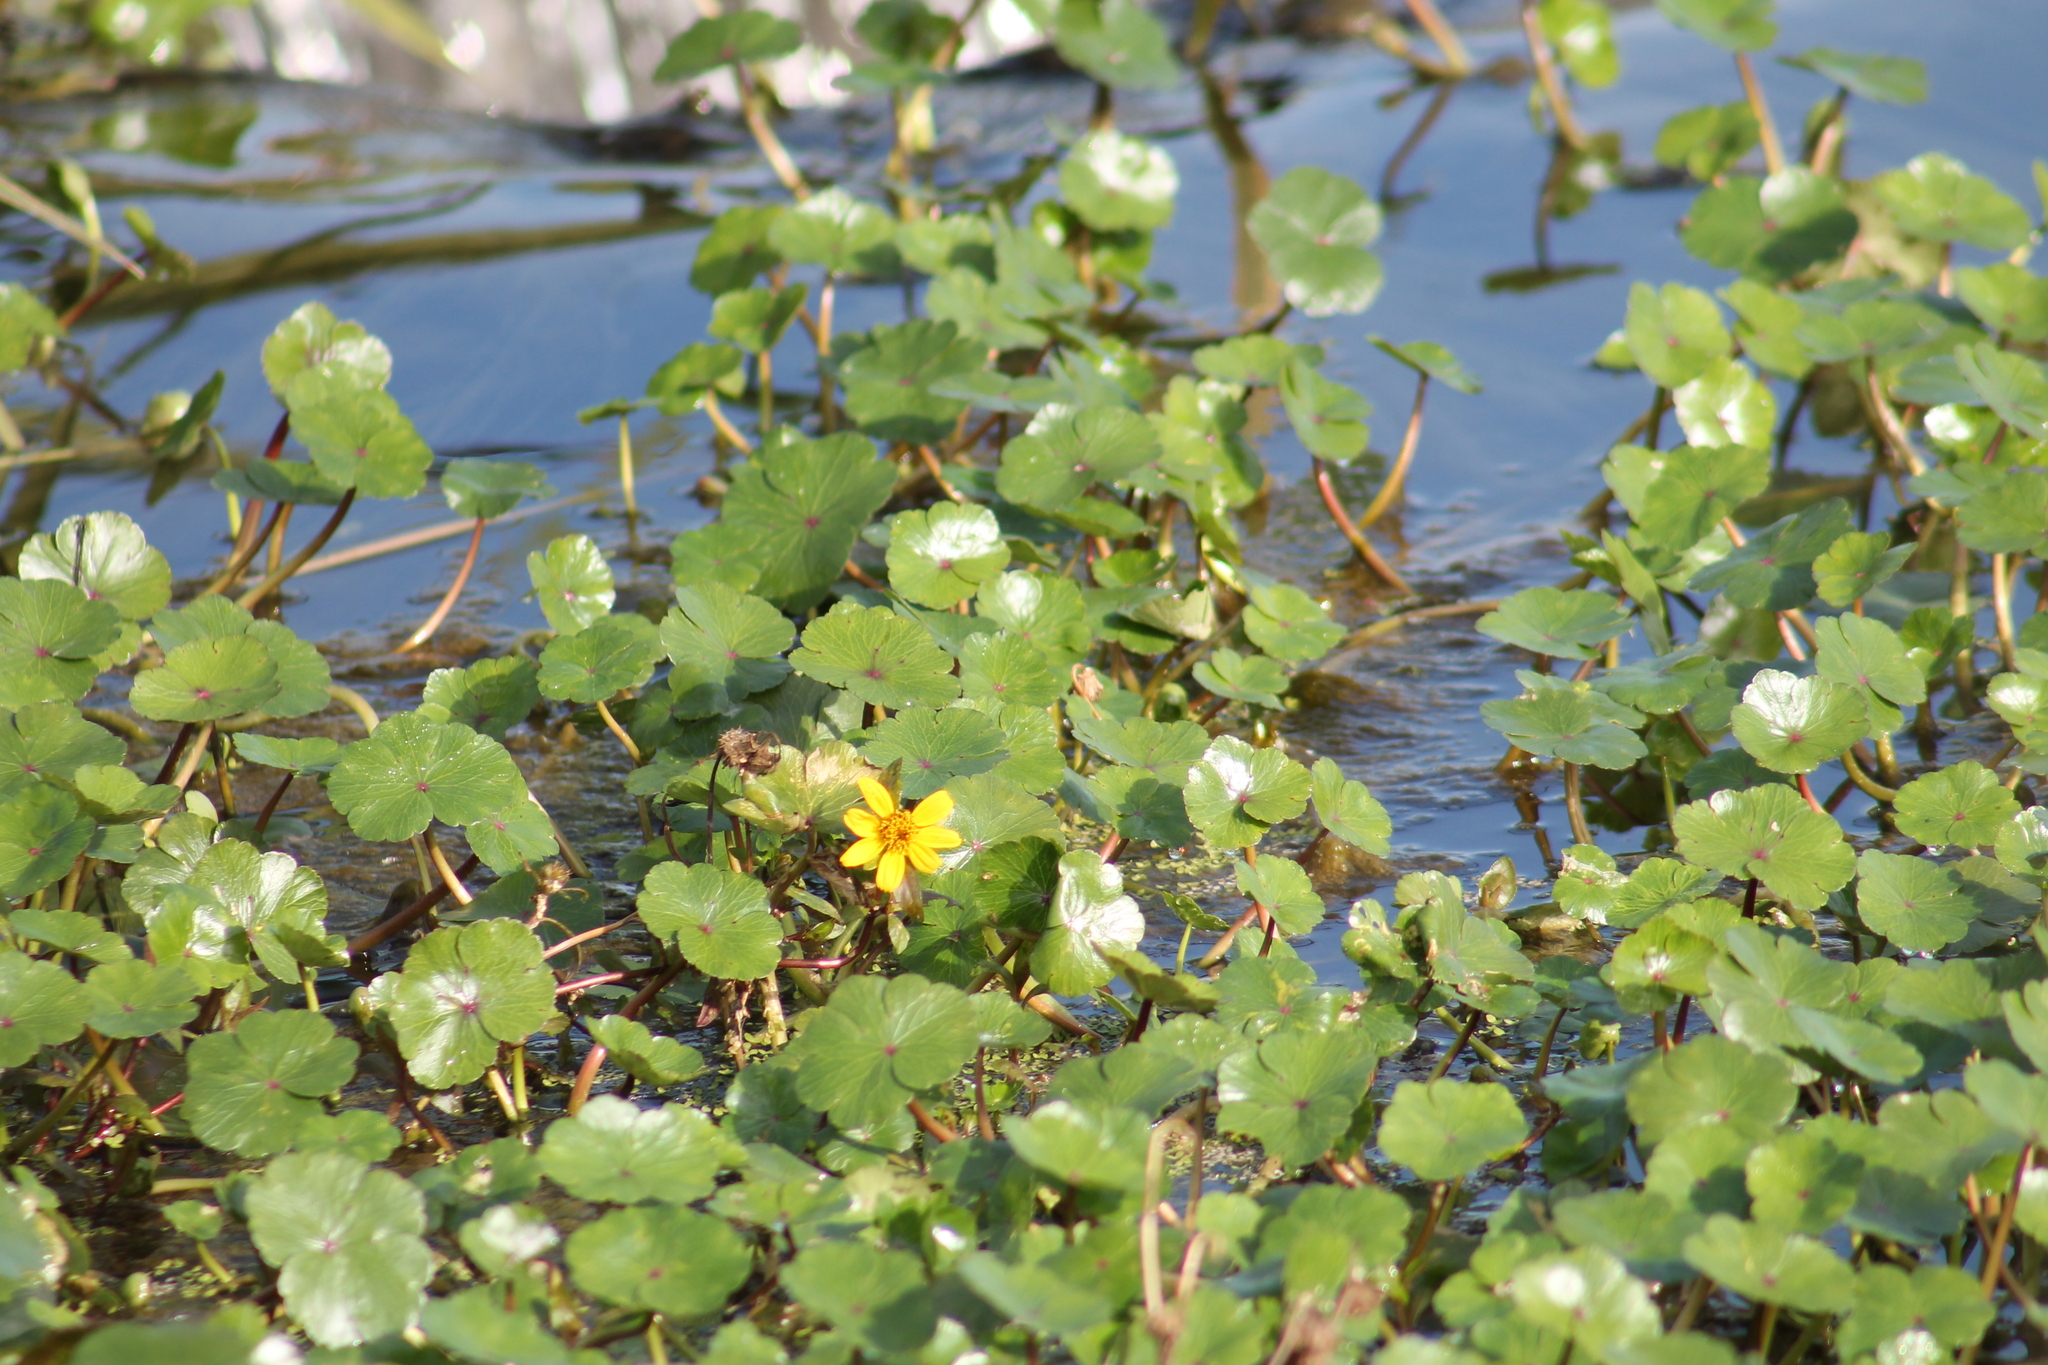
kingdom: Plantae
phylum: Tracheophyta
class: Magnoliopsida
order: Apiales
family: Araliaceae
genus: Hydrocotyle
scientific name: Hydrocotyle ranunculoides
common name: Floating pennywort
